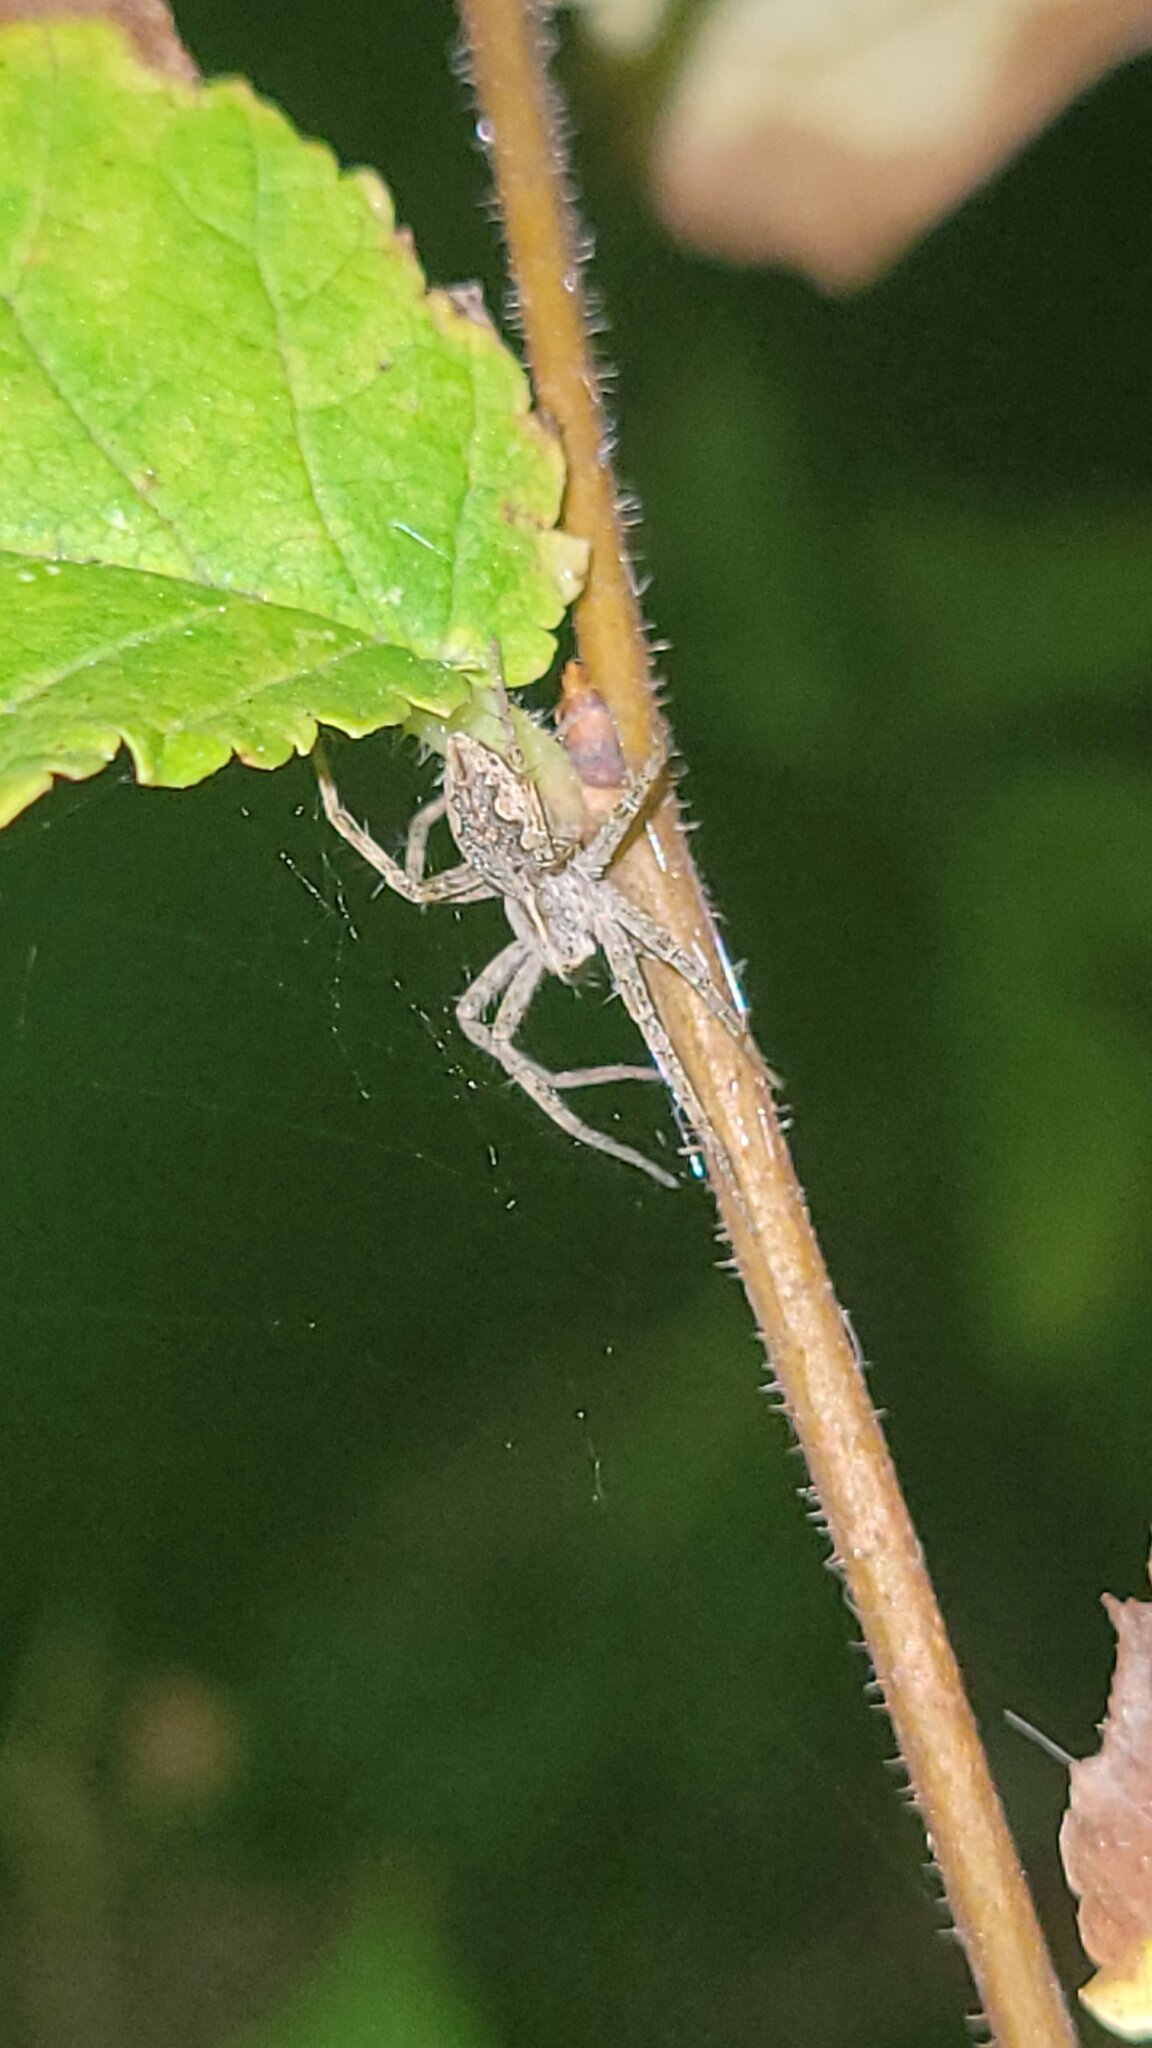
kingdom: Animalia
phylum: Arthropoda
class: Arachnida
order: Araneae
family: Pisauridae
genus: Pisaura
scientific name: Pisaura mirabilis
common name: Tent spider
